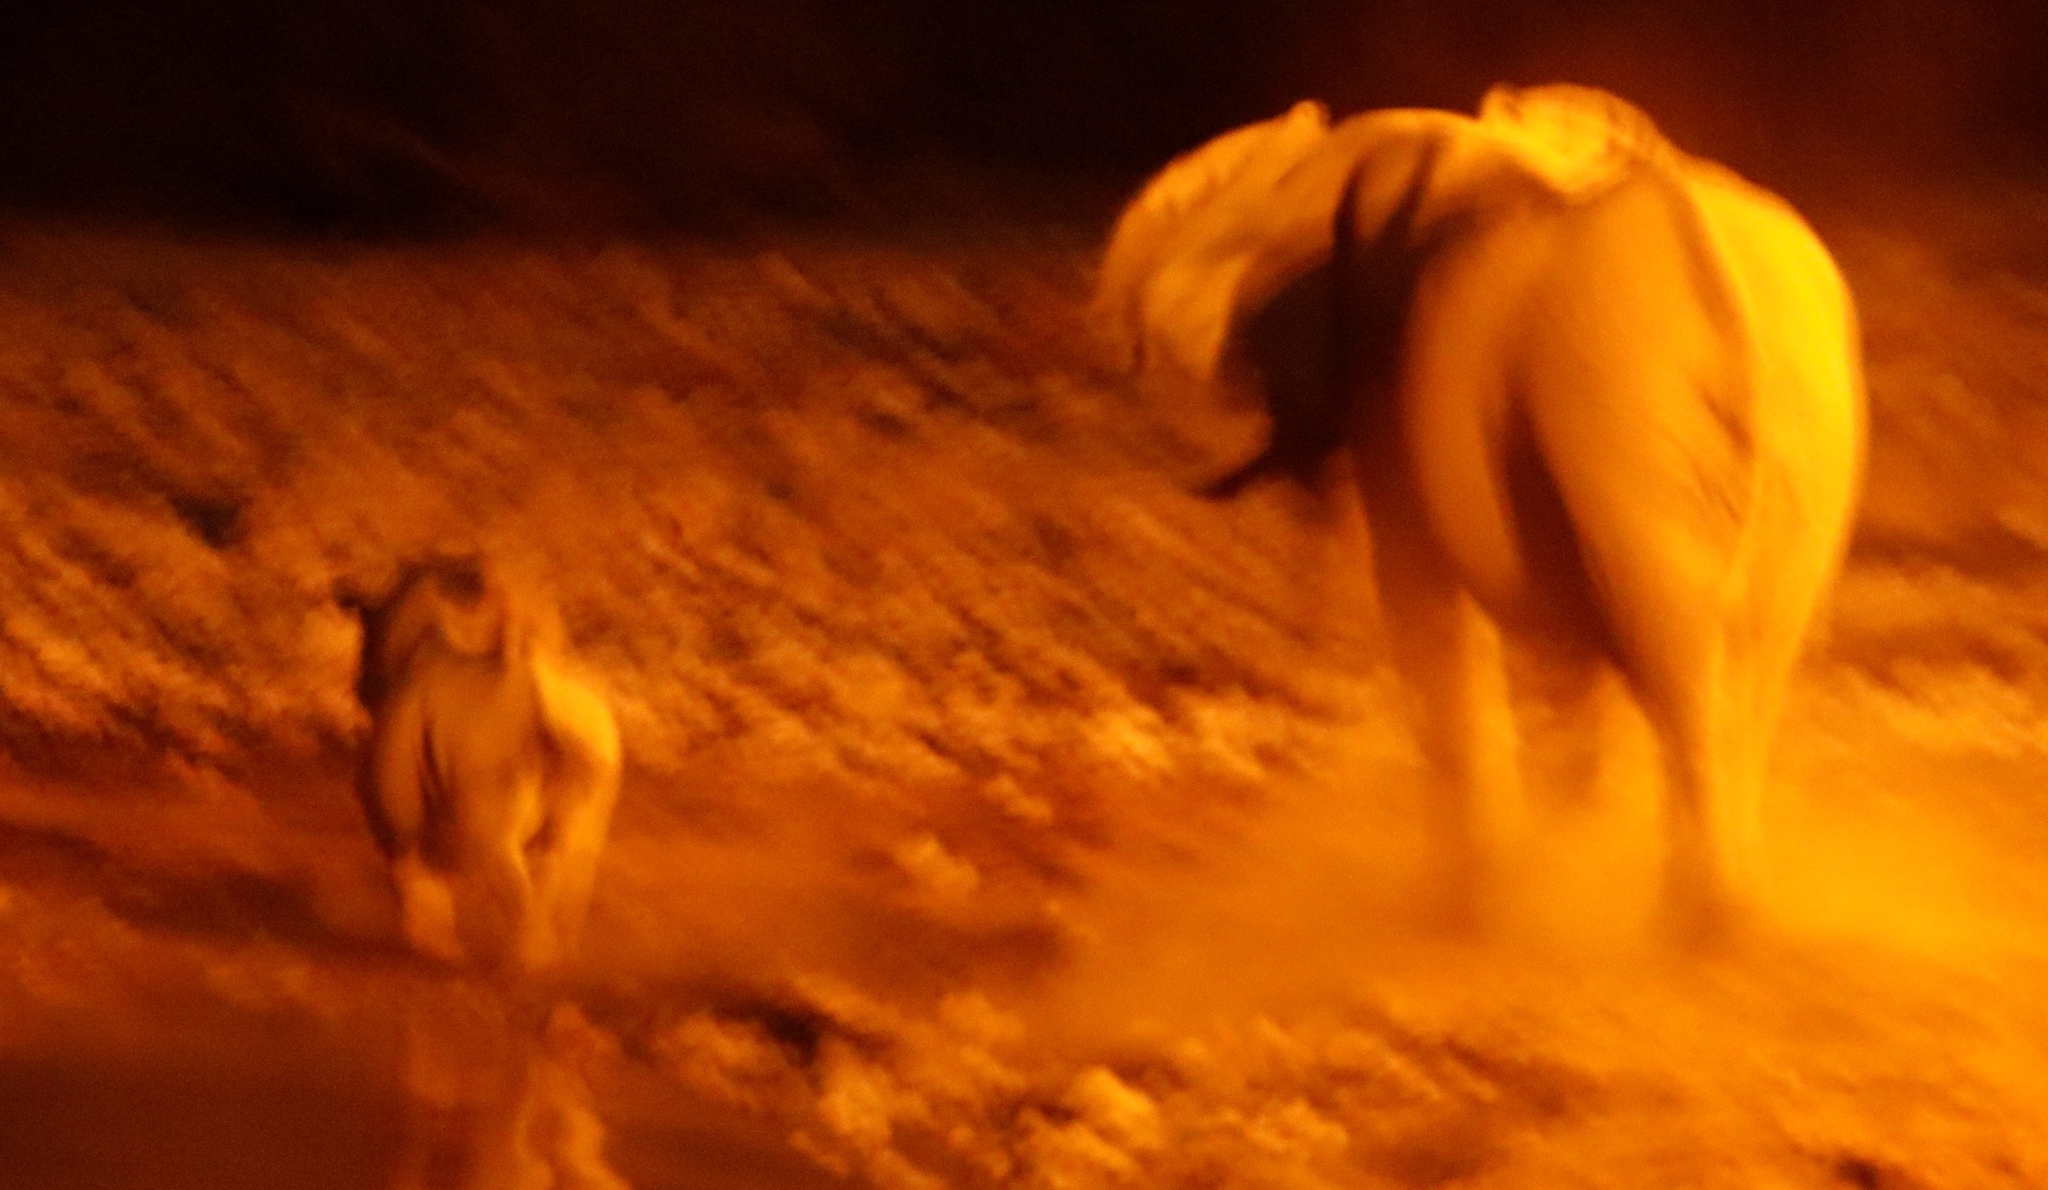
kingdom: Animalia
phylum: Chordata
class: Mammalia
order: Perissodactyla
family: Rhinocerotidae
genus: Diceros
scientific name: Diceros bicornis
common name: Black rhinoceros
